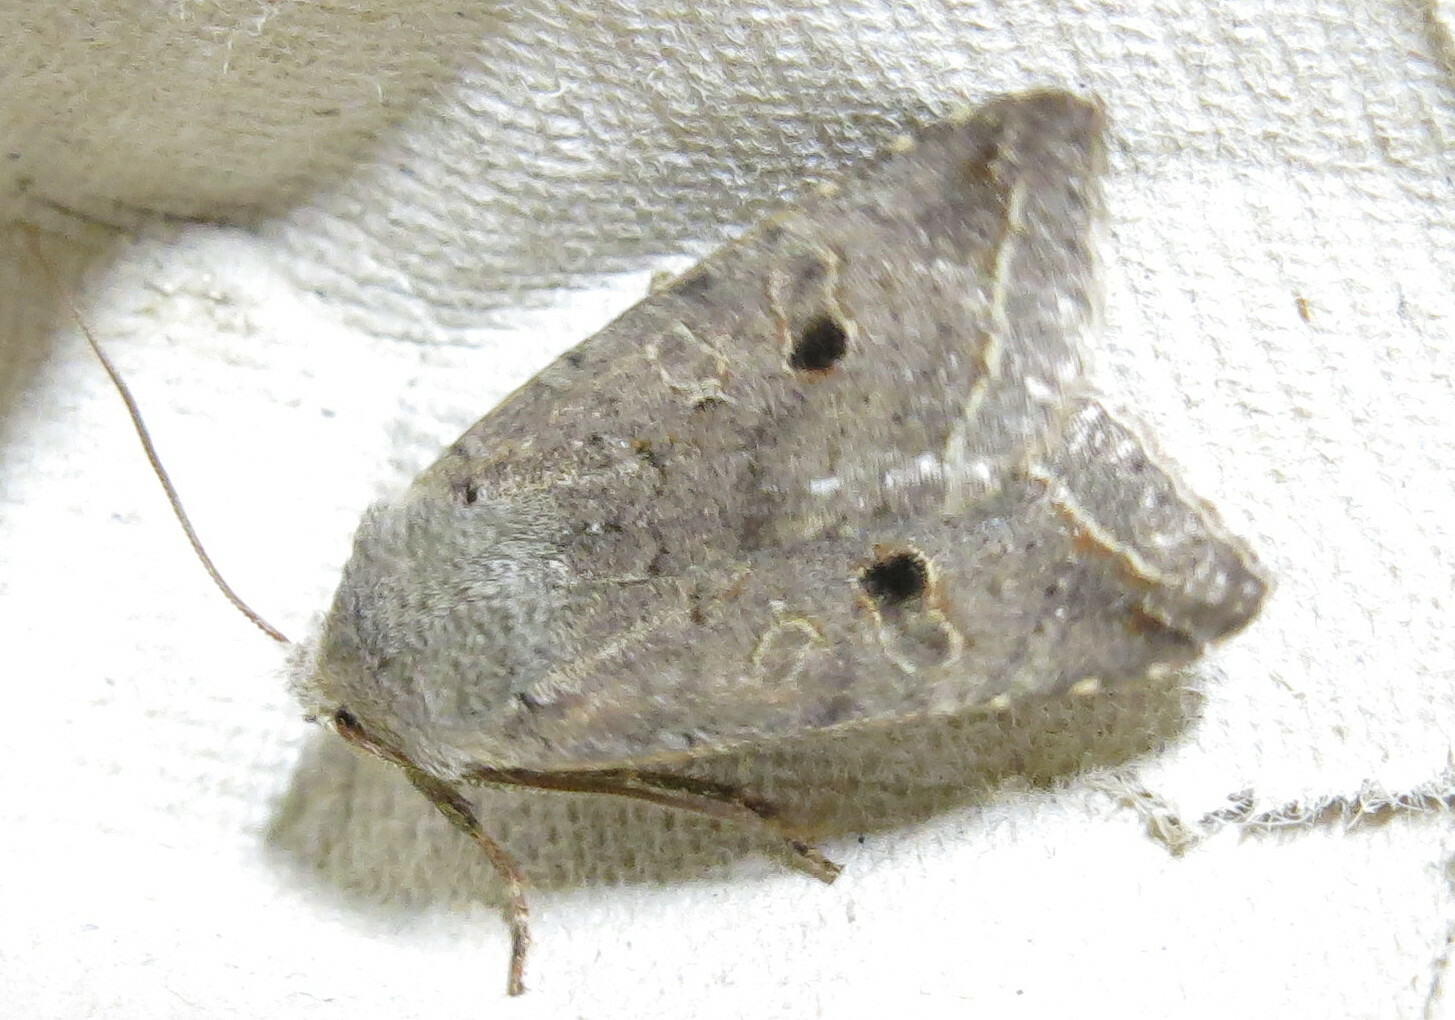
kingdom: Animalia
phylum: Arthropoda
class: Insecta
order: Lepidoptera
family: Noctuidae
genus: Agrochola
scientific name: Agrochola lota
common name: Red-line quaker
